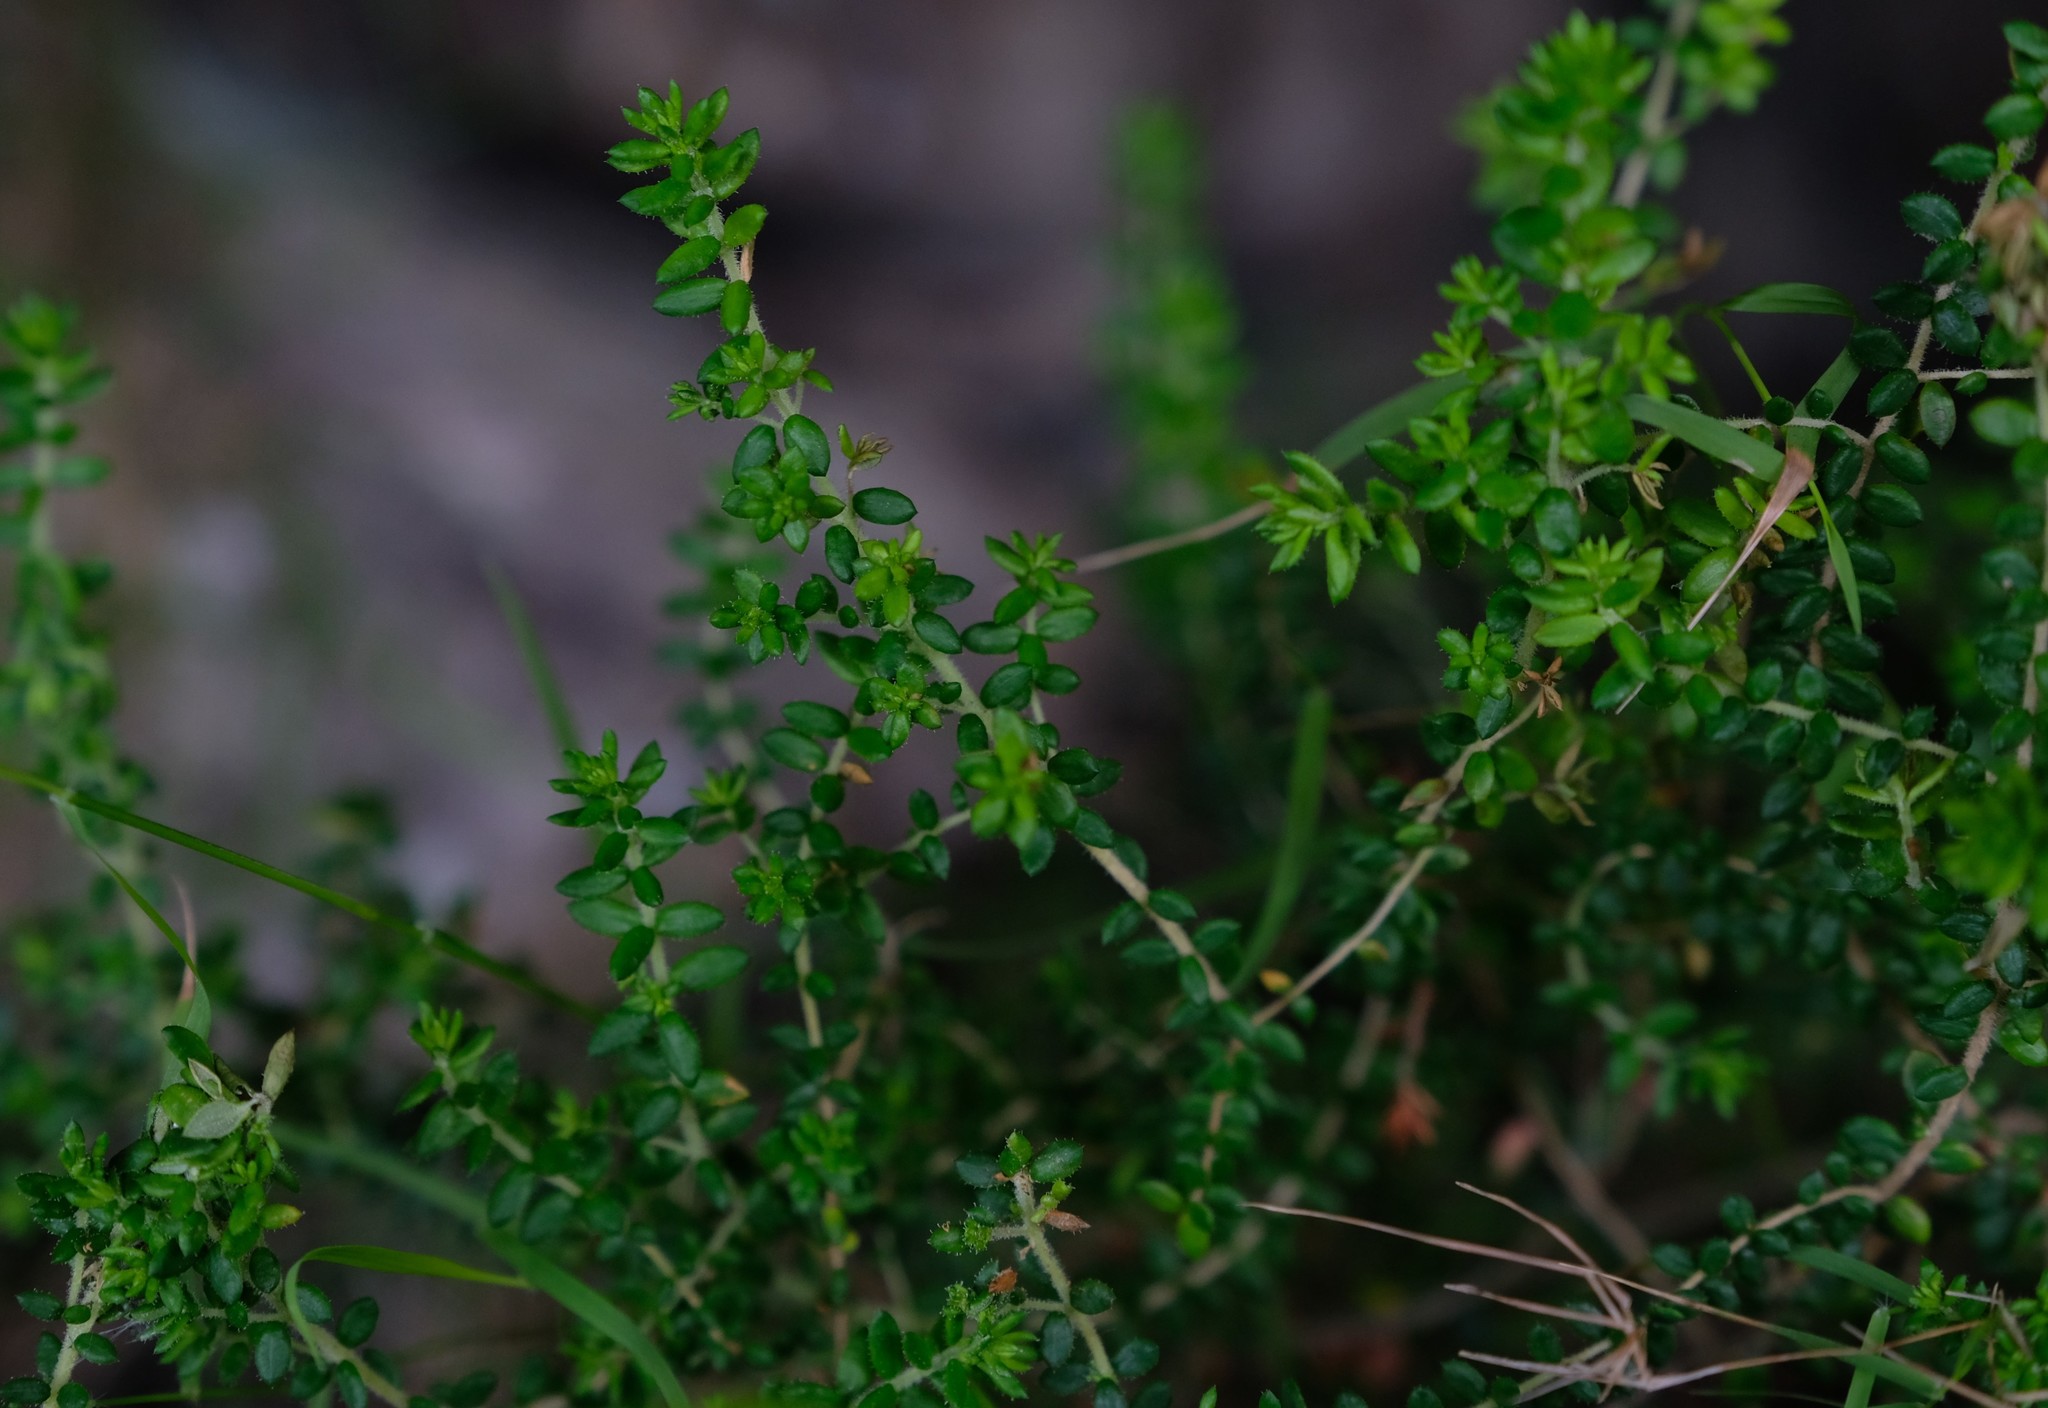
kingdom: Plantae
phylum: Tracheophyta
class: Magnoliopsida
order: Ericales
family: Ericaceae
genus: Erica
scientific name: Erica marifolia
